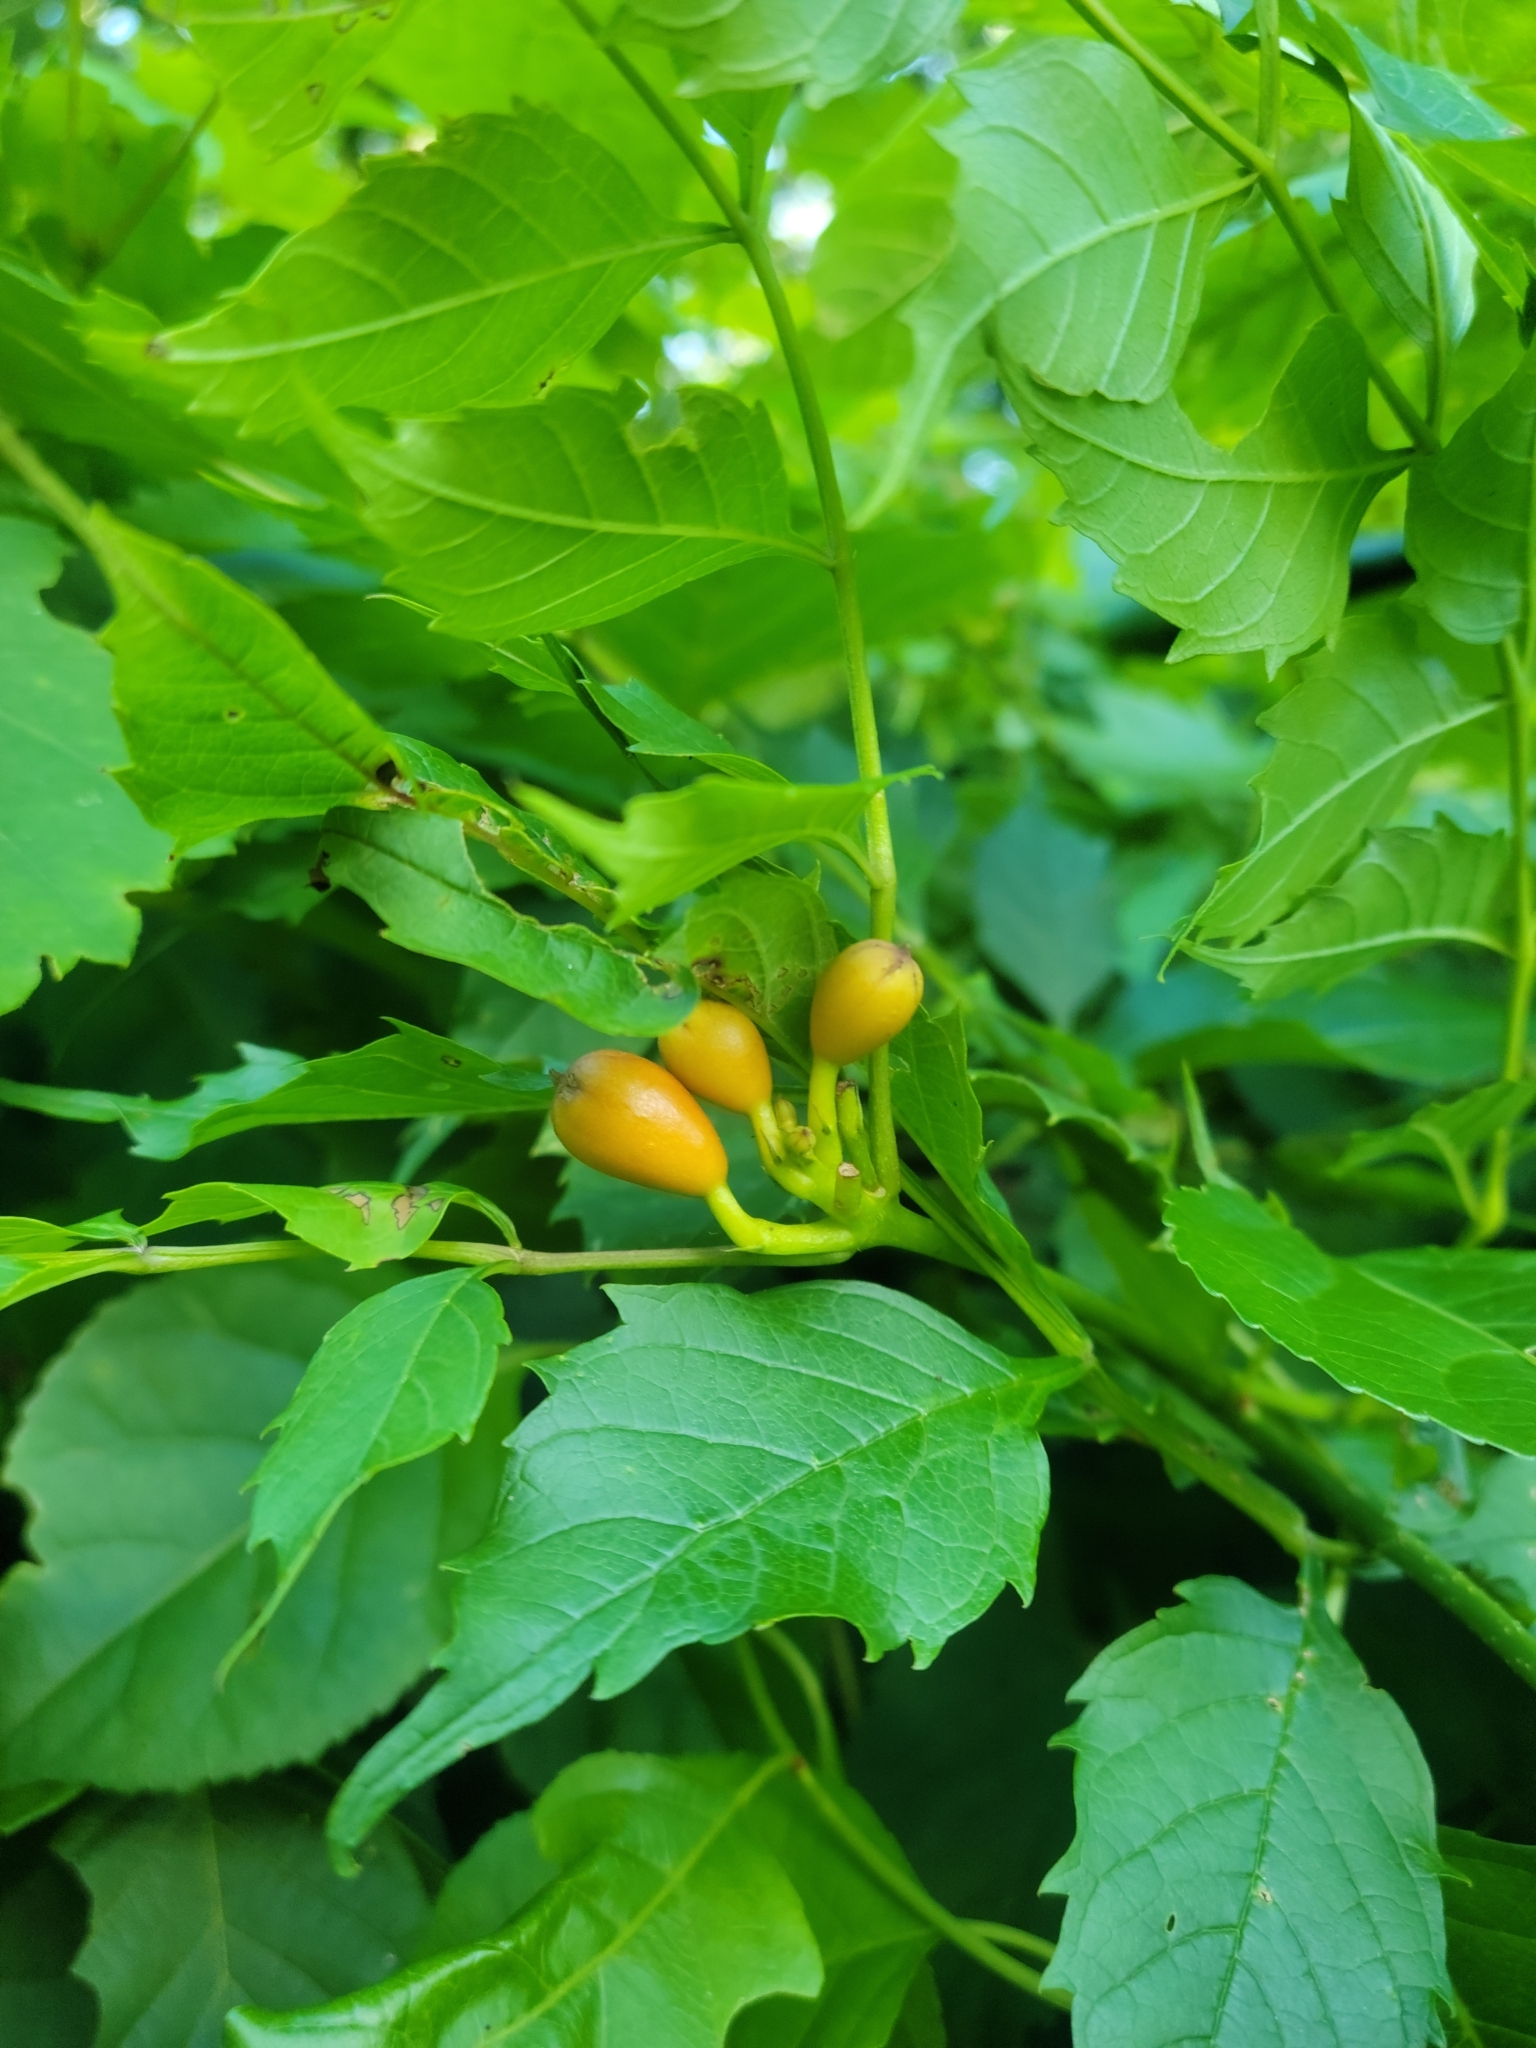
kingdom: Plantae
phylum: Tracheophyta
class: Magnoliopsida
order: Lamiales
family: Bignoniaceae
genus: Campsis
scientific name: Campsis radicans
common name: Trumpet-creeper
